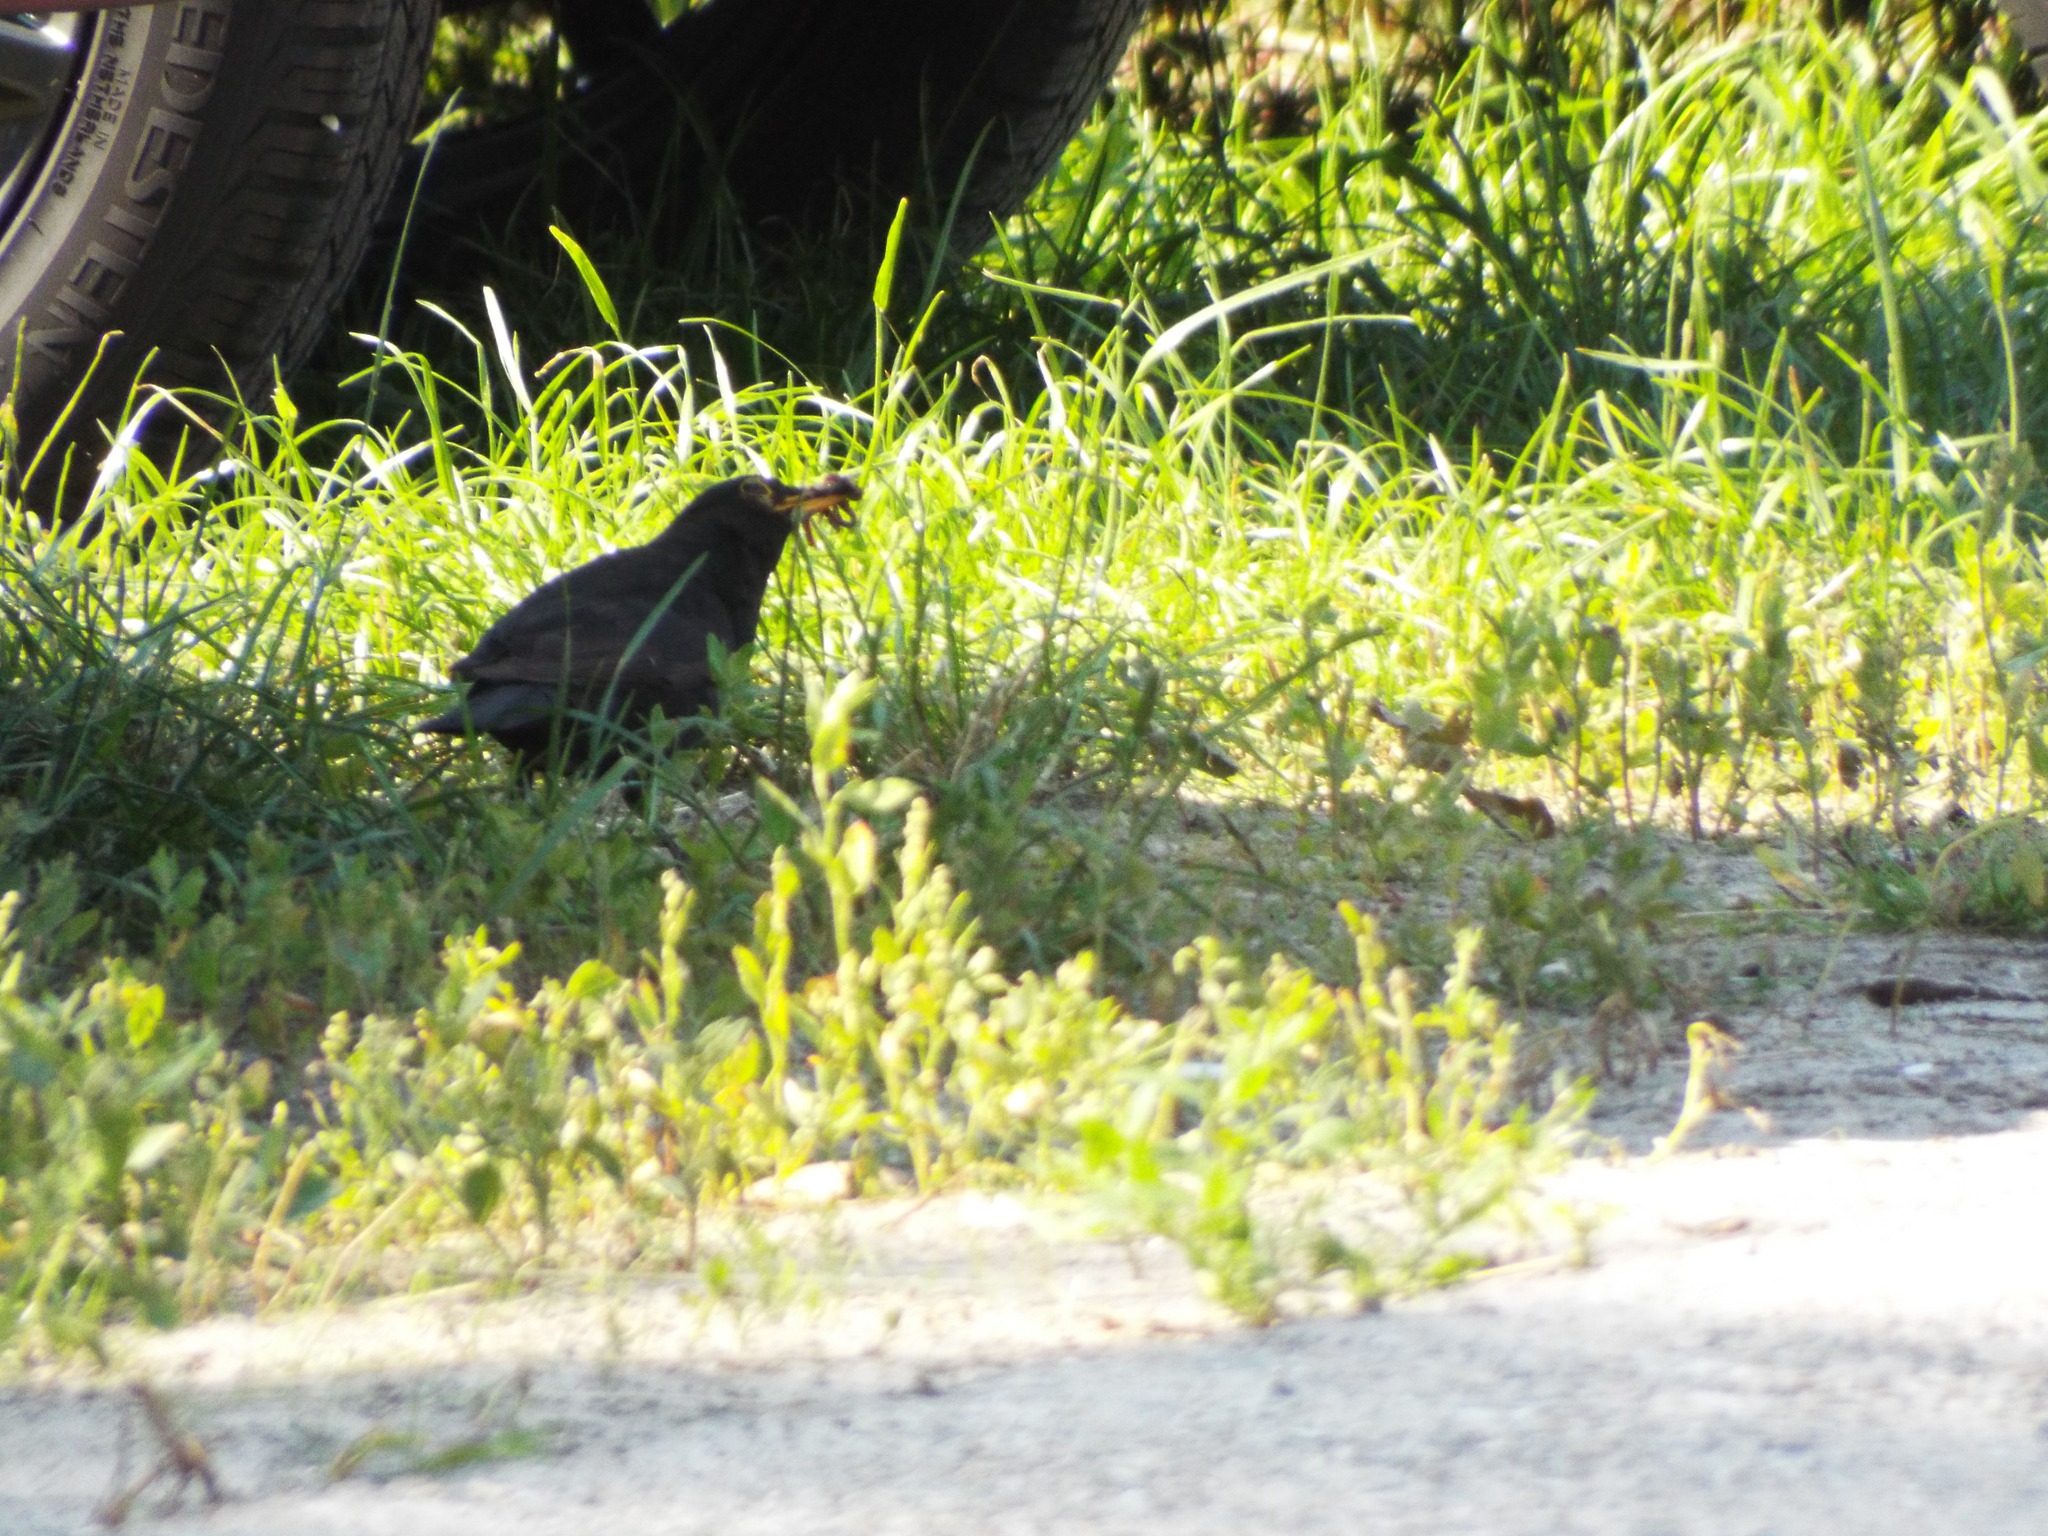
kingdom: Animalia
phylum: Chordata
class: Aves
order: Passeriformes
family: Turdidae
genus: Turdus
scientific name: Turdus merula
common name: Common blackbird
